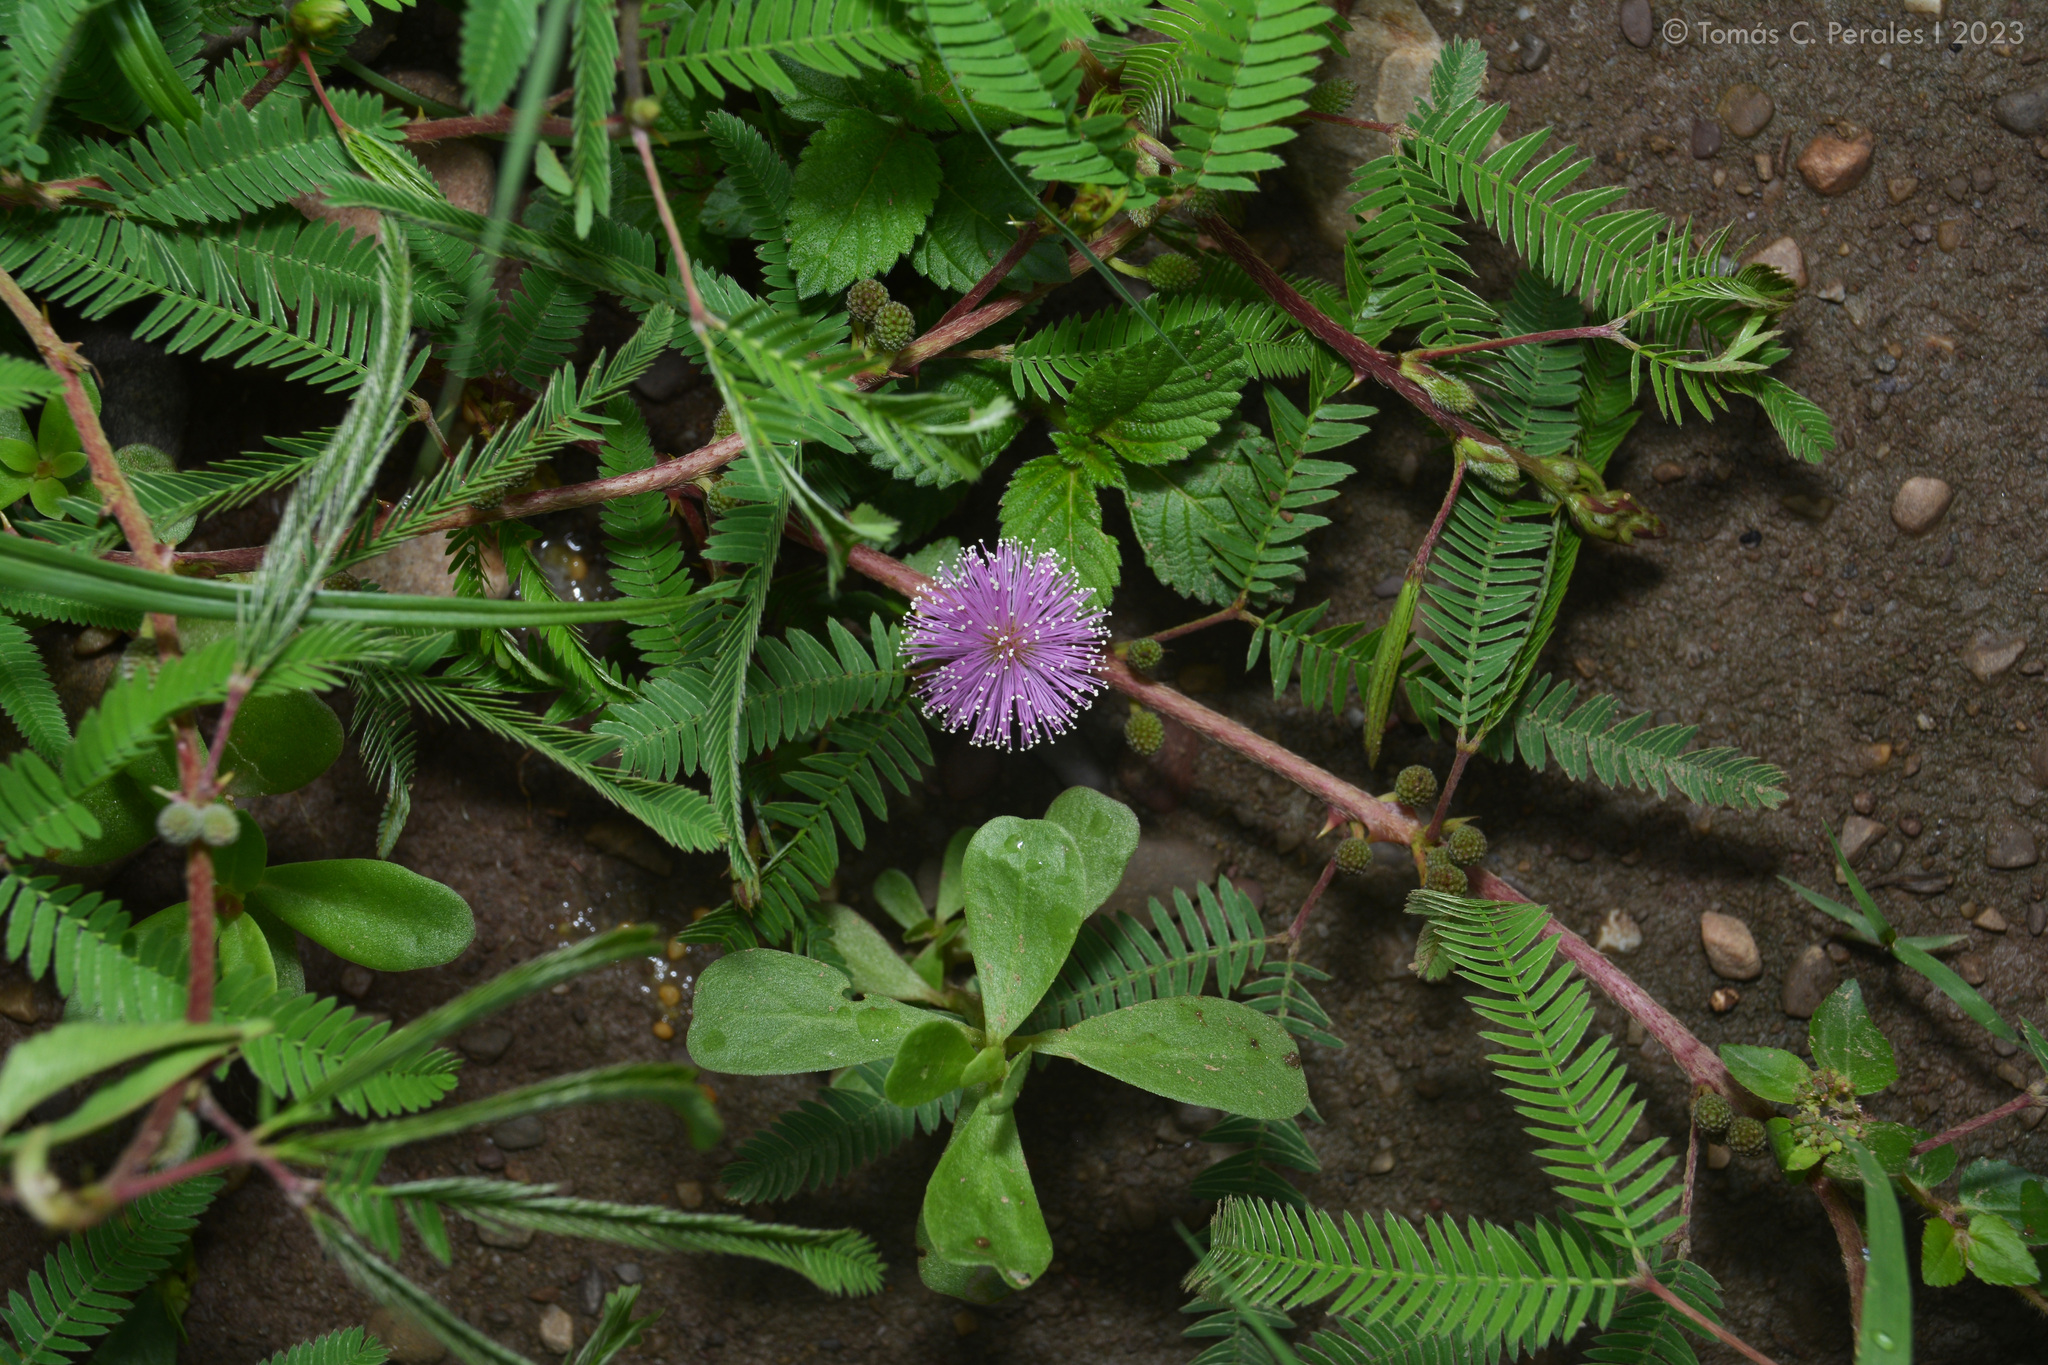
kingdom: Plantae
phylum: Tracheophyta
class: Magnoliopsida
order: Fabales
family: Fabaceae
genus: Mimosa
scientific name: Mimosa xanthocentra
